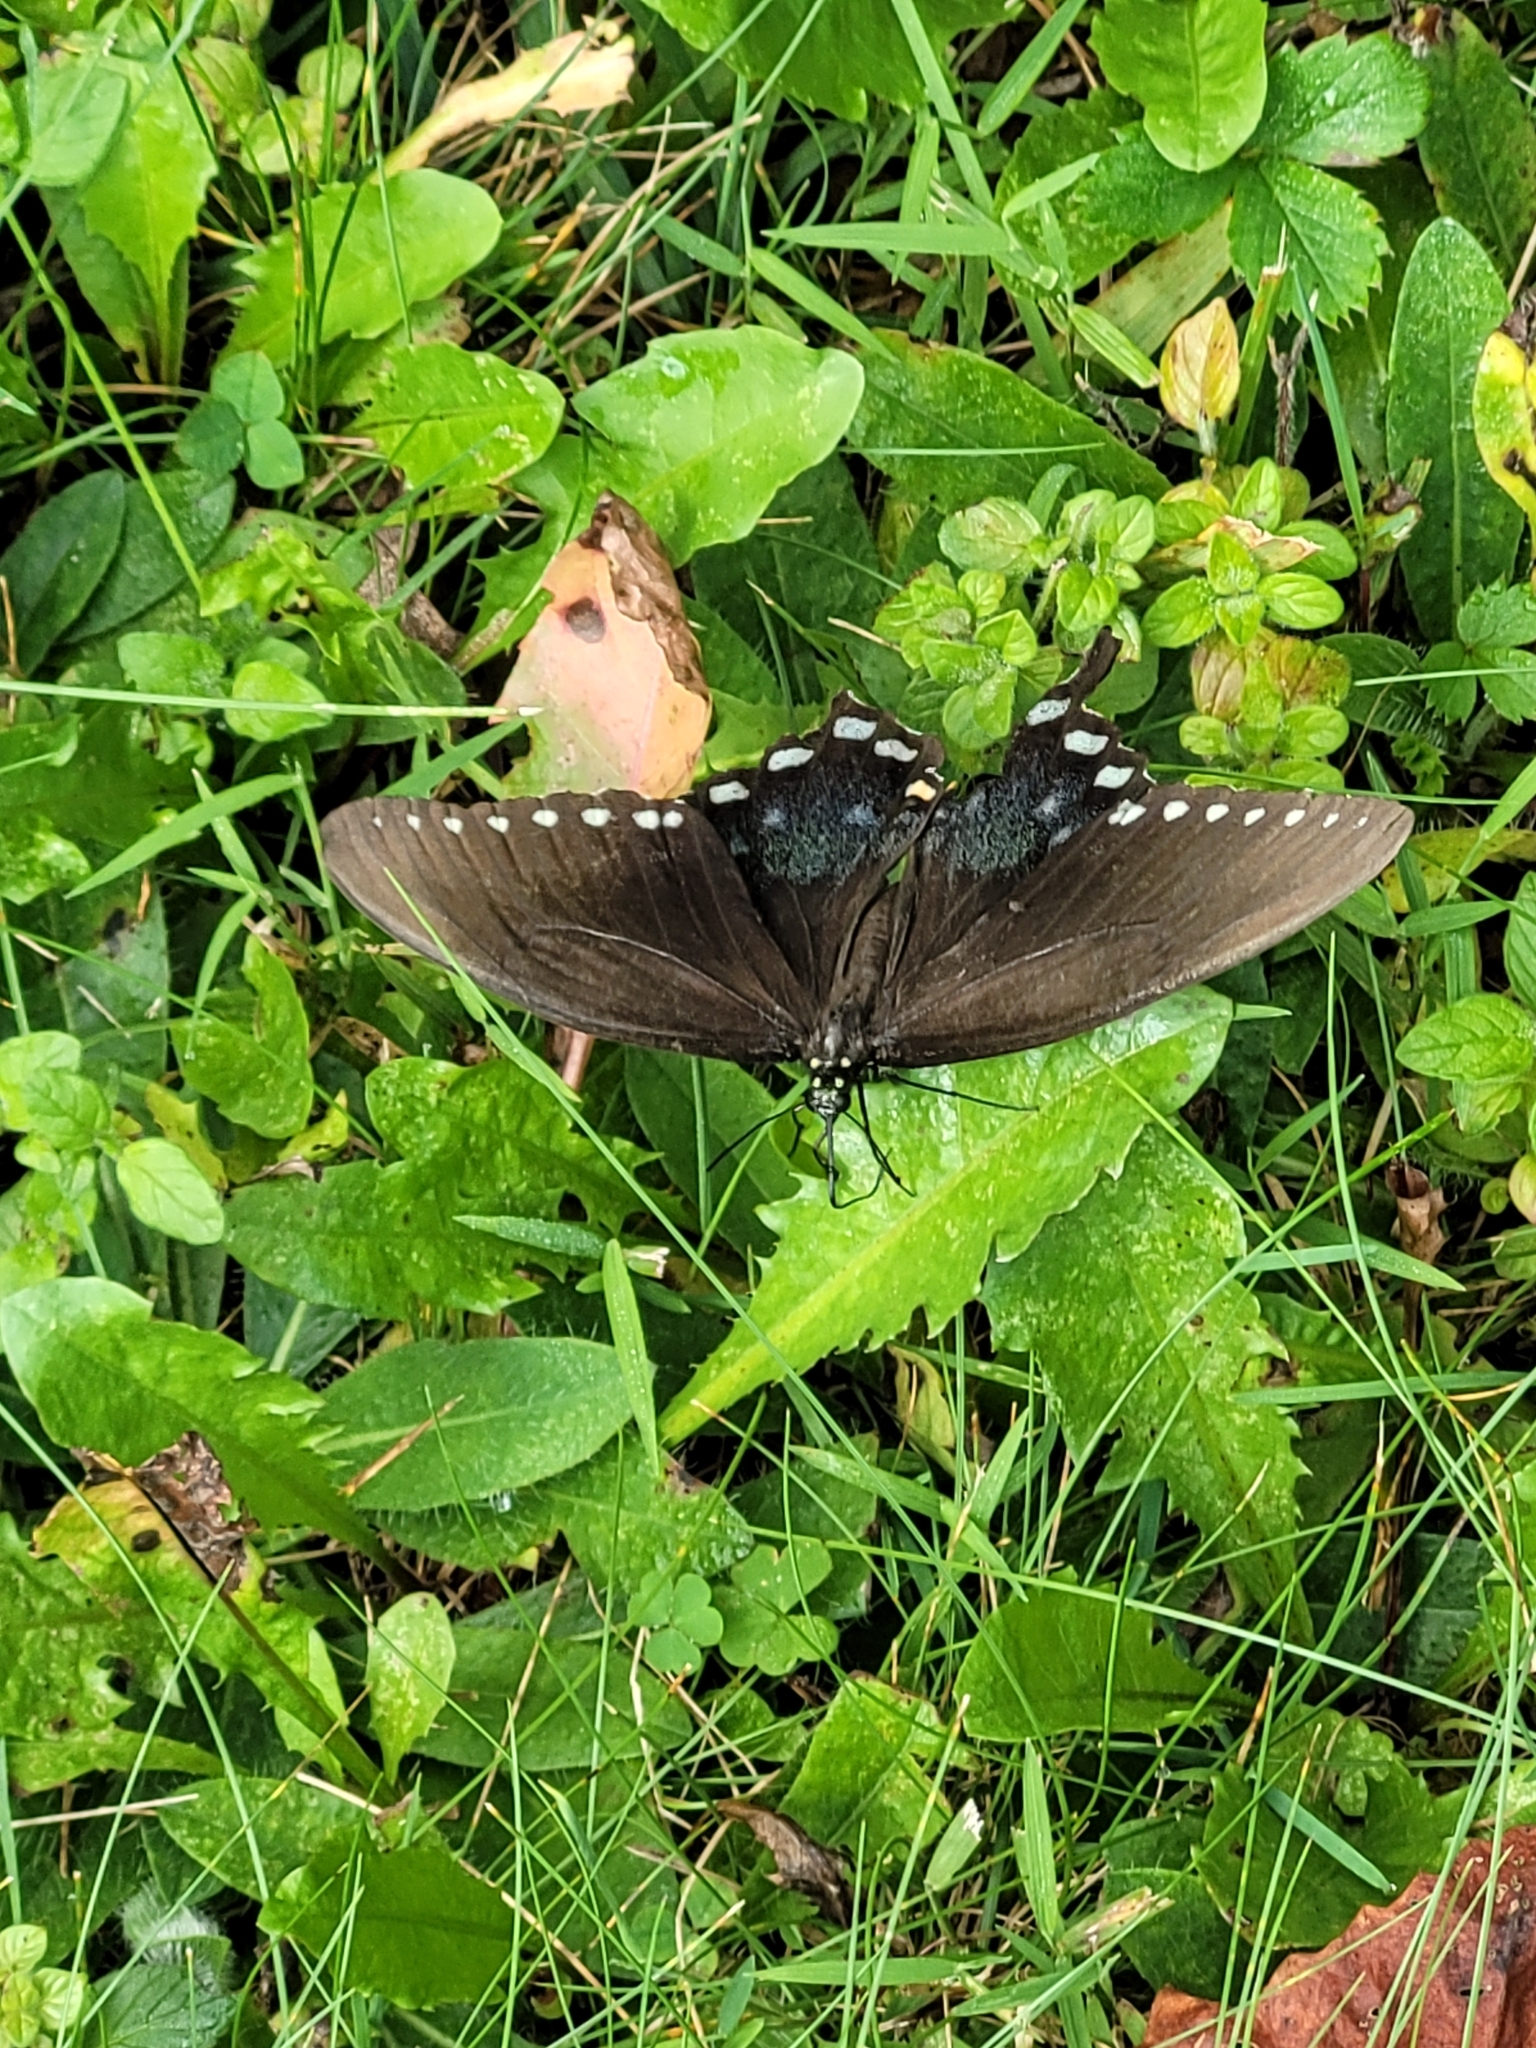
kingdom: Animalia
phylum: Arthropoda
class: Insecta
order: Lepidoptera
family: Papilionidae
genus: Papilio
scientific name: Papilio troilus
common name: Spicebush swallowtail
